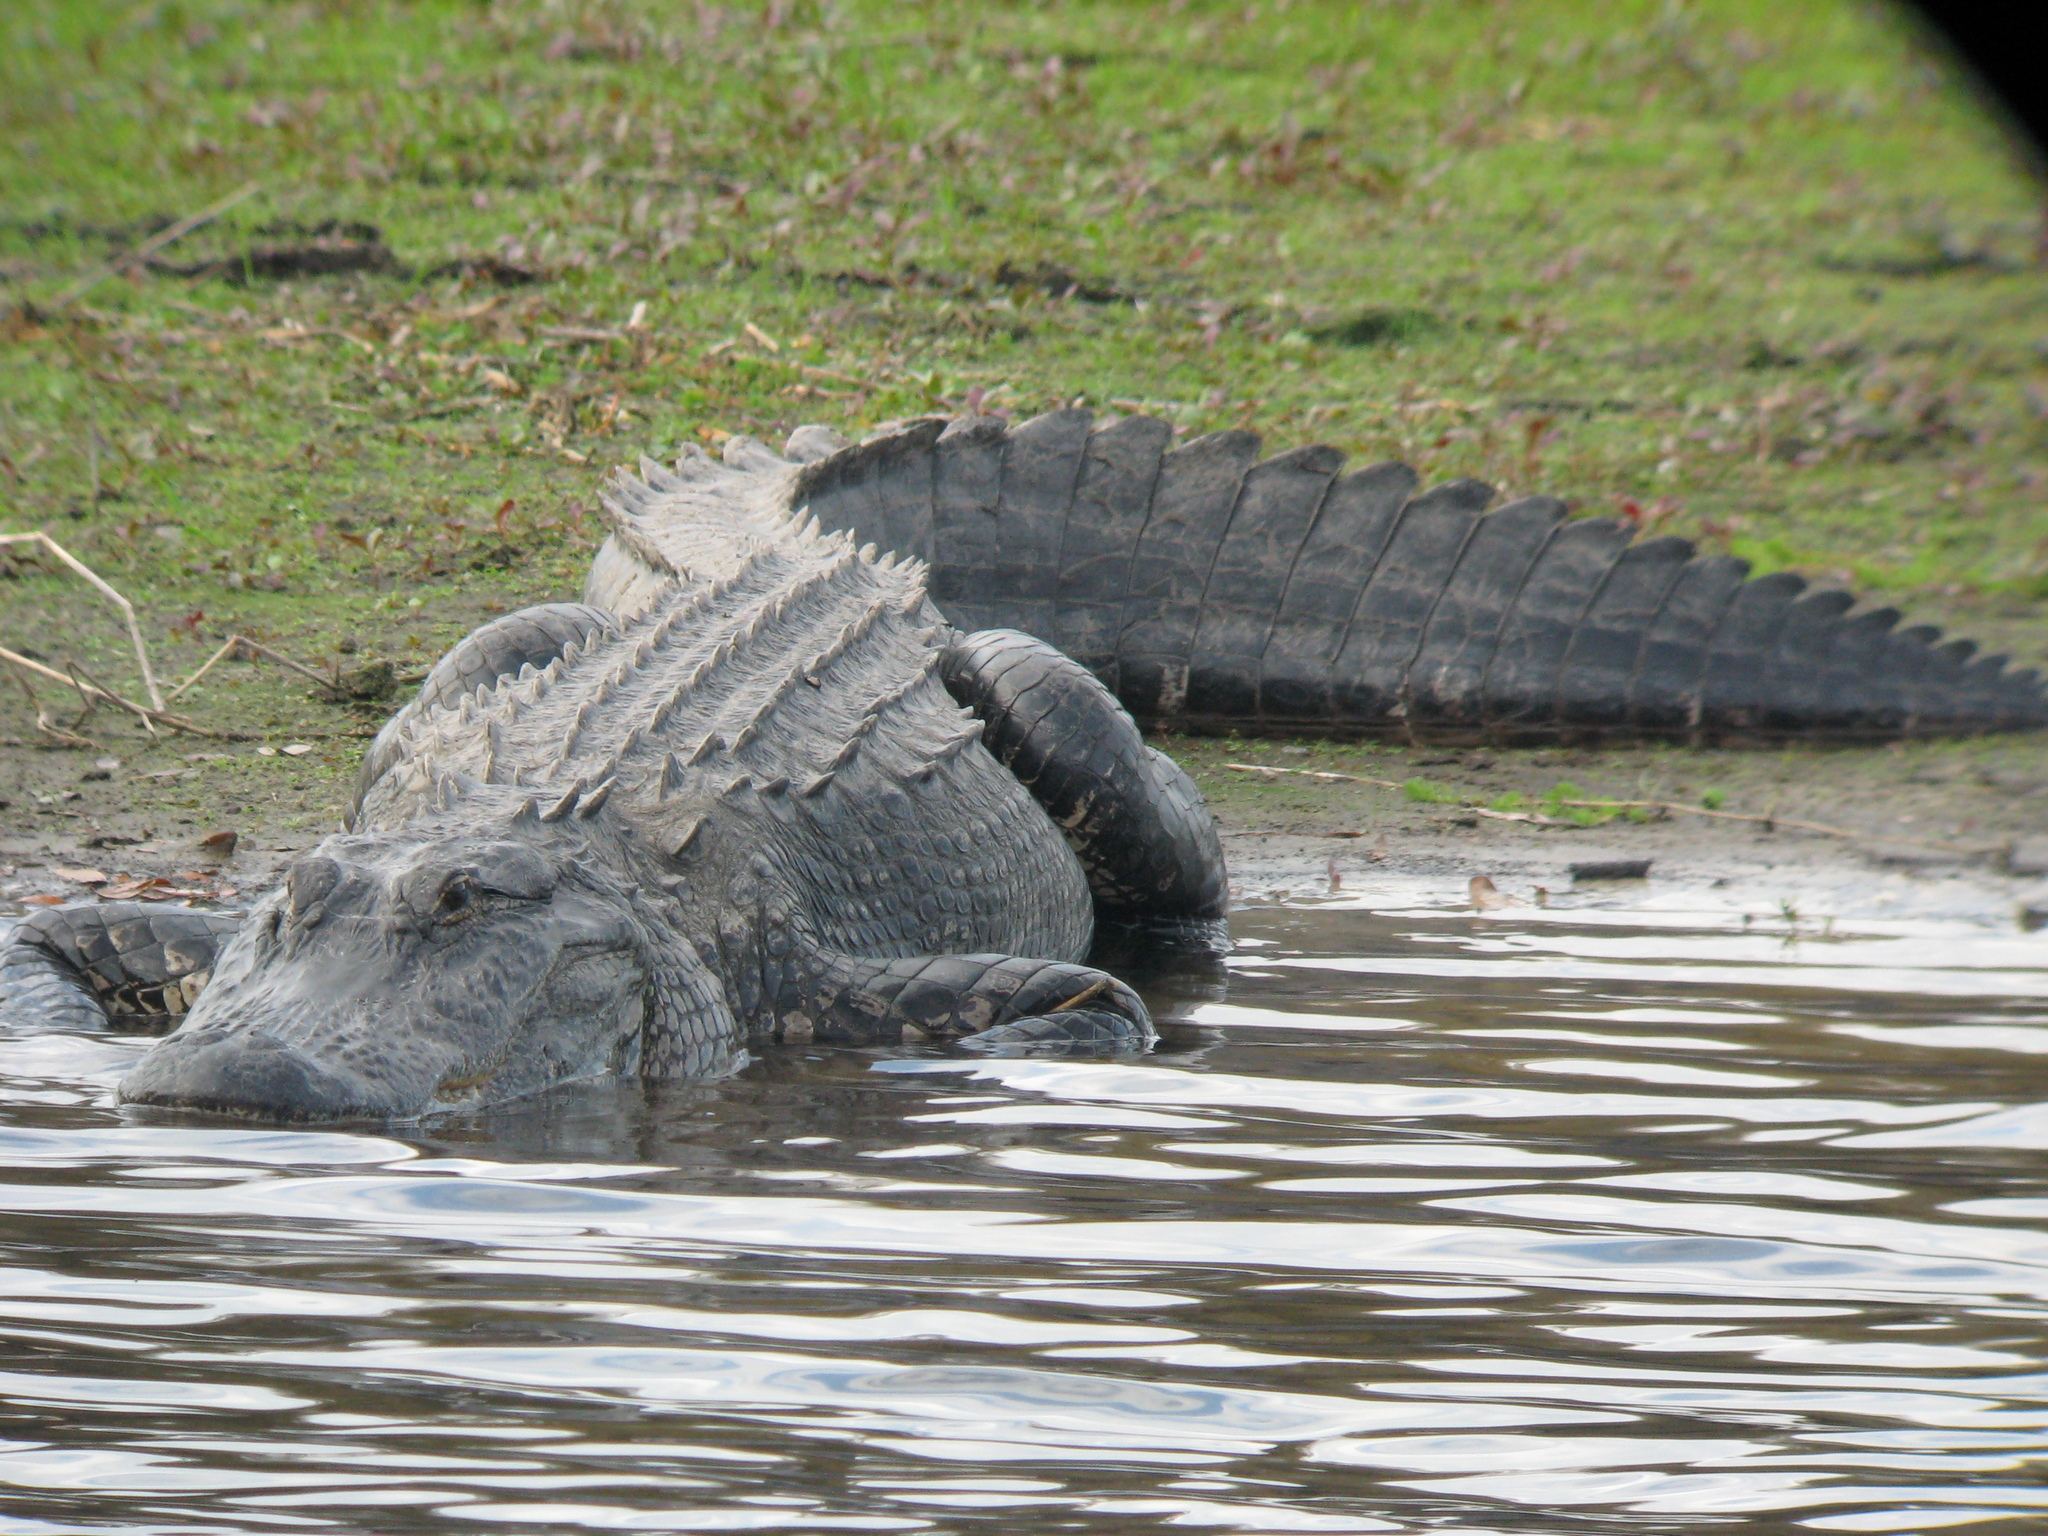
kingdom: Animalia
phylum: Chordata
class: Crocodylia
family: Alligatoridae
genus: Alligator
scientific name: Alligator mississippiensis
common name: American alligator
